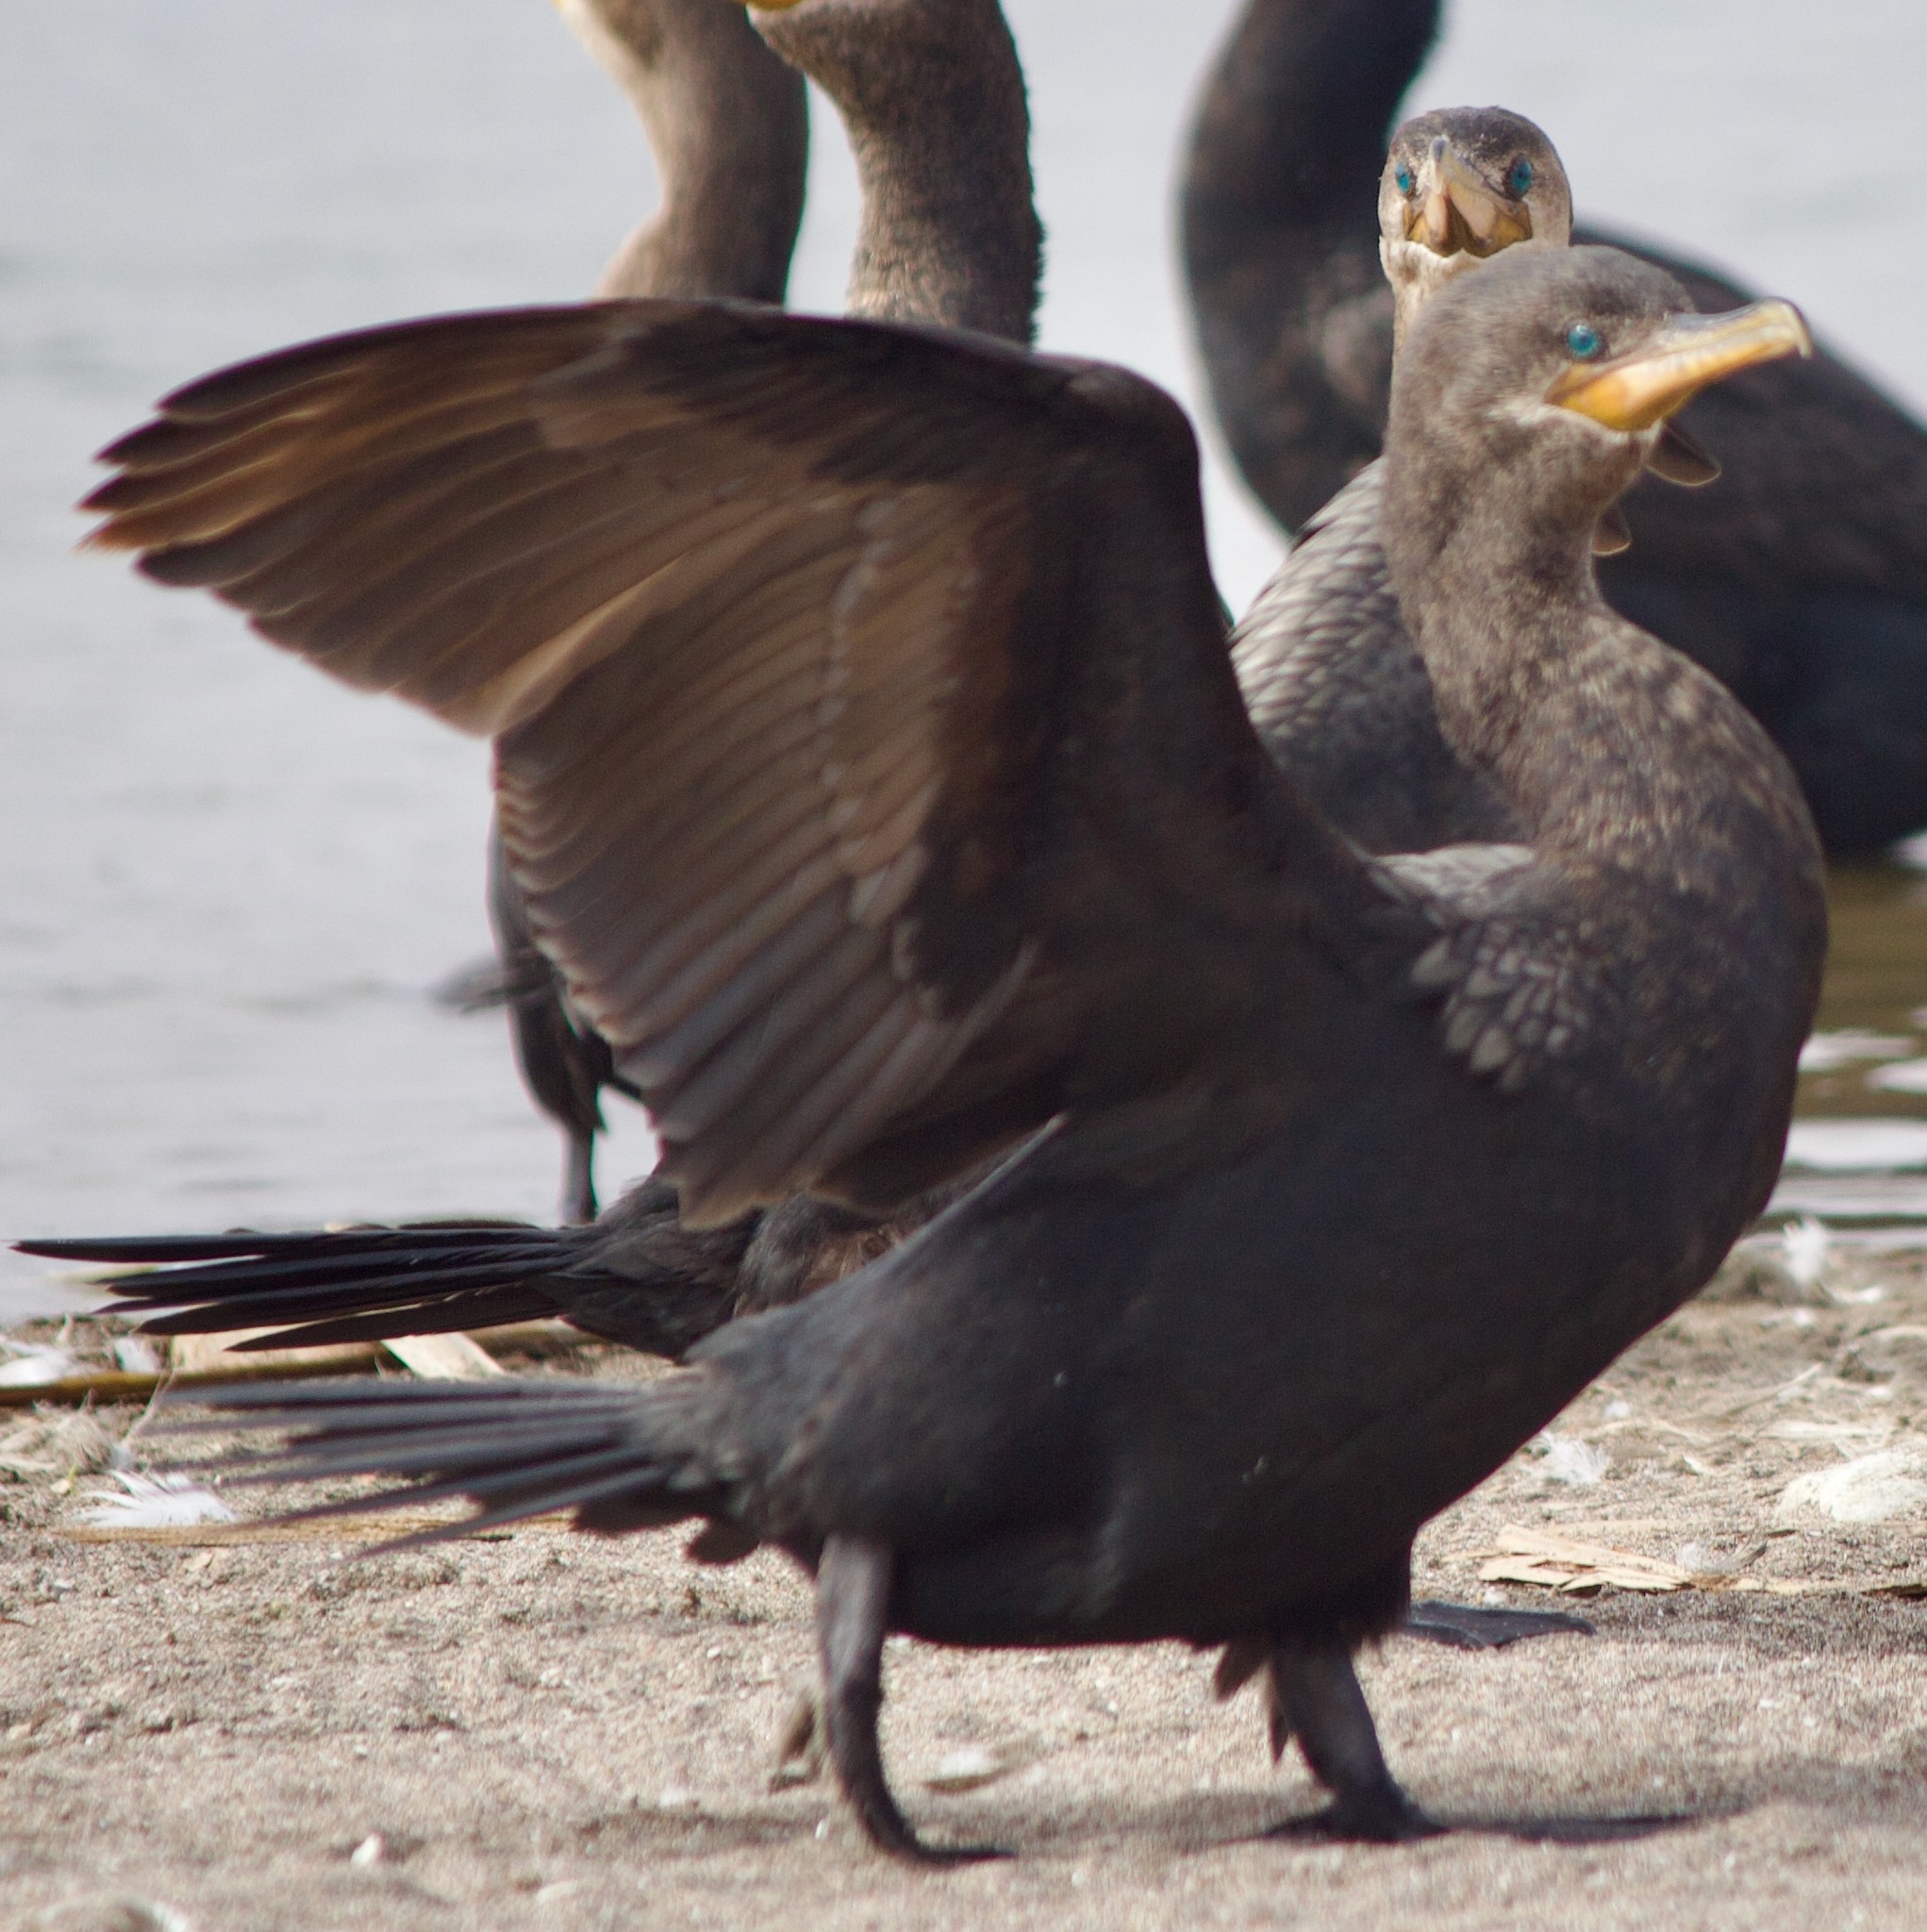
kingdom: Animalia
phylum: Chordata
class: Aves
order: Suliformes
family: Phalacrocoracidae
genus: Phalacrocorax
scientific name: Phalacrocorax brasilianus
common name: Neotropic cormorant
